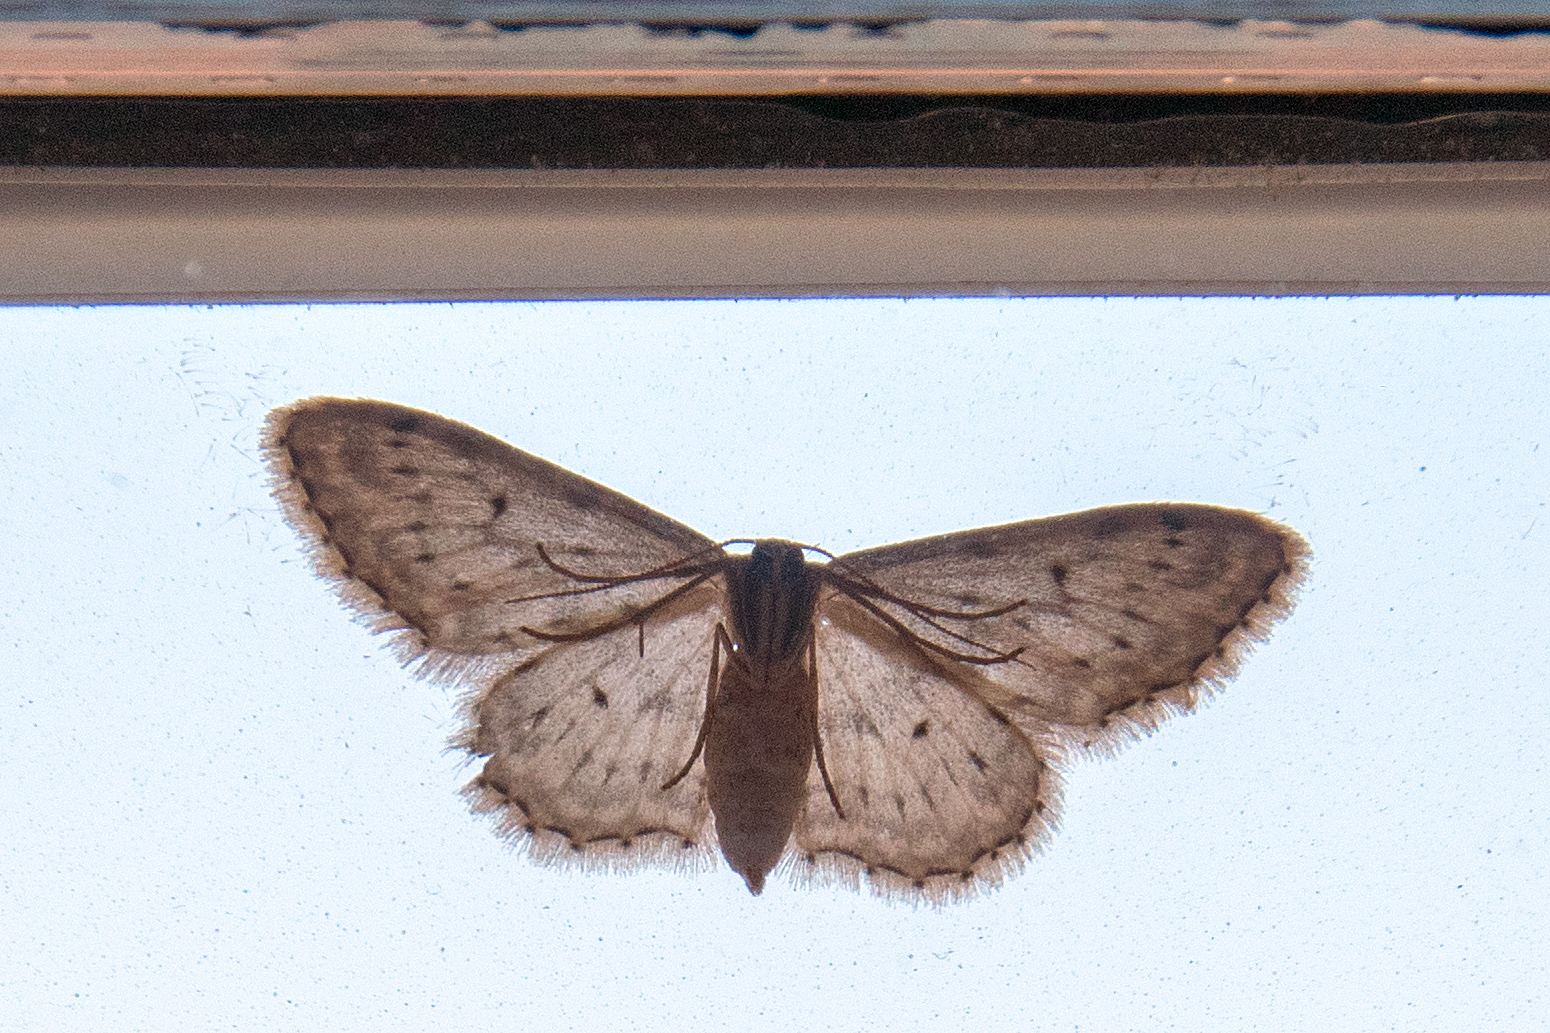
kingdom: Animalia
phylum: Arthropoda
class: Insecta
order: Lepidoptera
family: Geometridae
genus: Idaea
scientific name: Idaea seriata
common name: Small dusty wave
